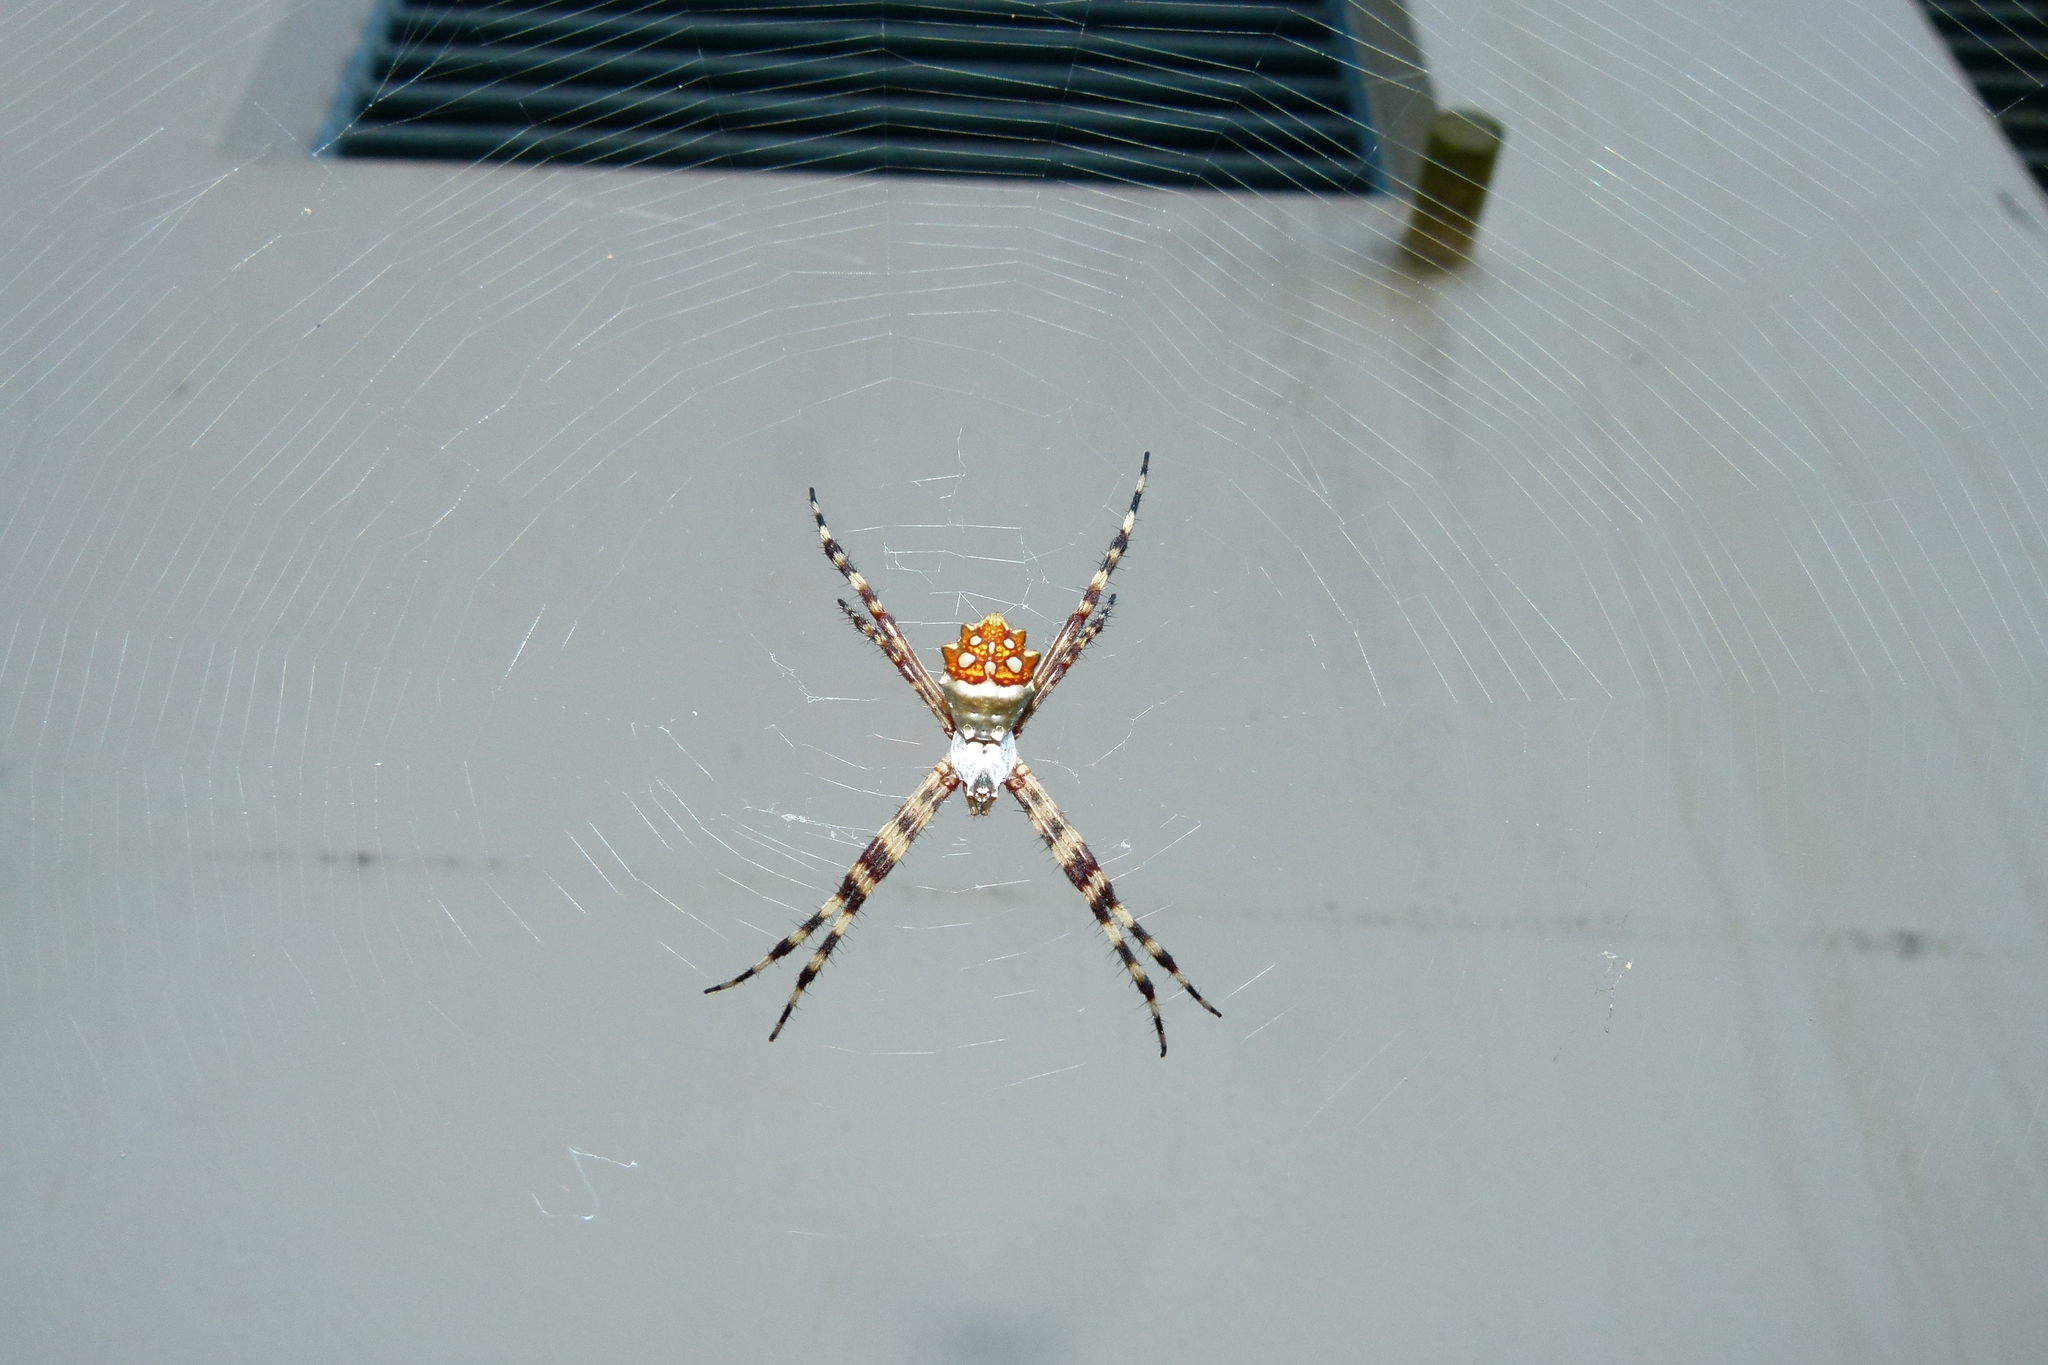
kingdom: Animalia
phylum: Arthropoda
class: Arachnida
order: Araneae
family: Araneidae
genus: Argiope
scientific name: Argiope argentata
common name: Orb weavers
